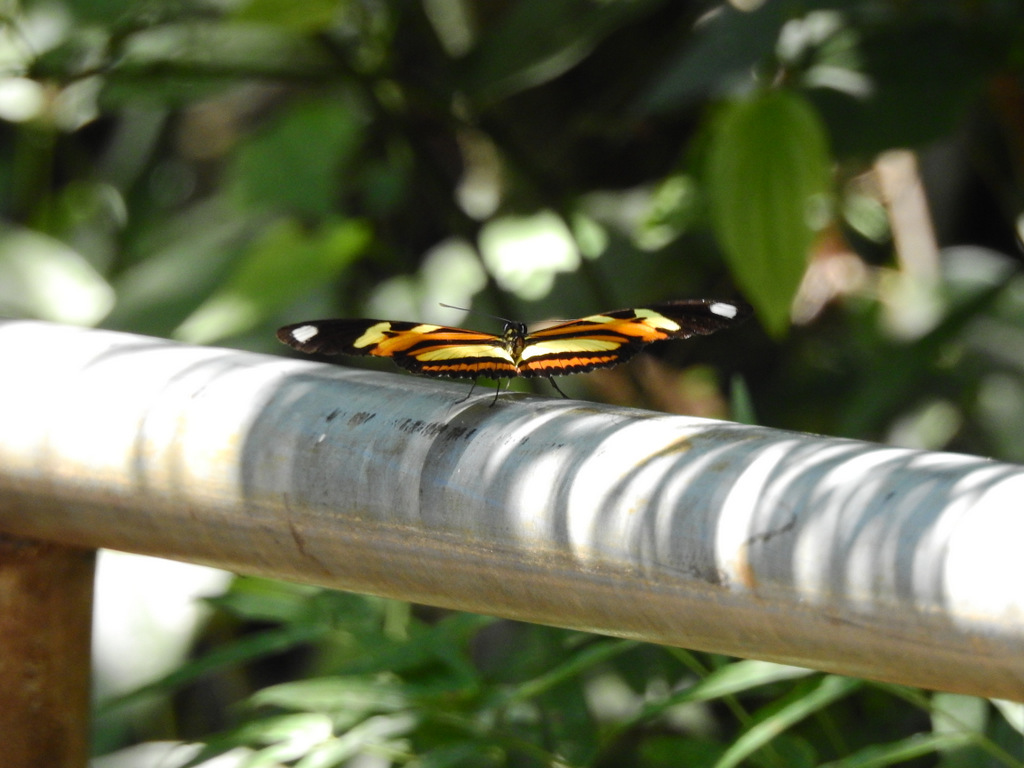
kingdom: Animalia
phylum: Arthropoda
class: Insecta
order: Lepidoptera
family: Nymphalidae
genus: Heliconius
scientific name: Heliconius ethilla
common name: Ethilia longwing
